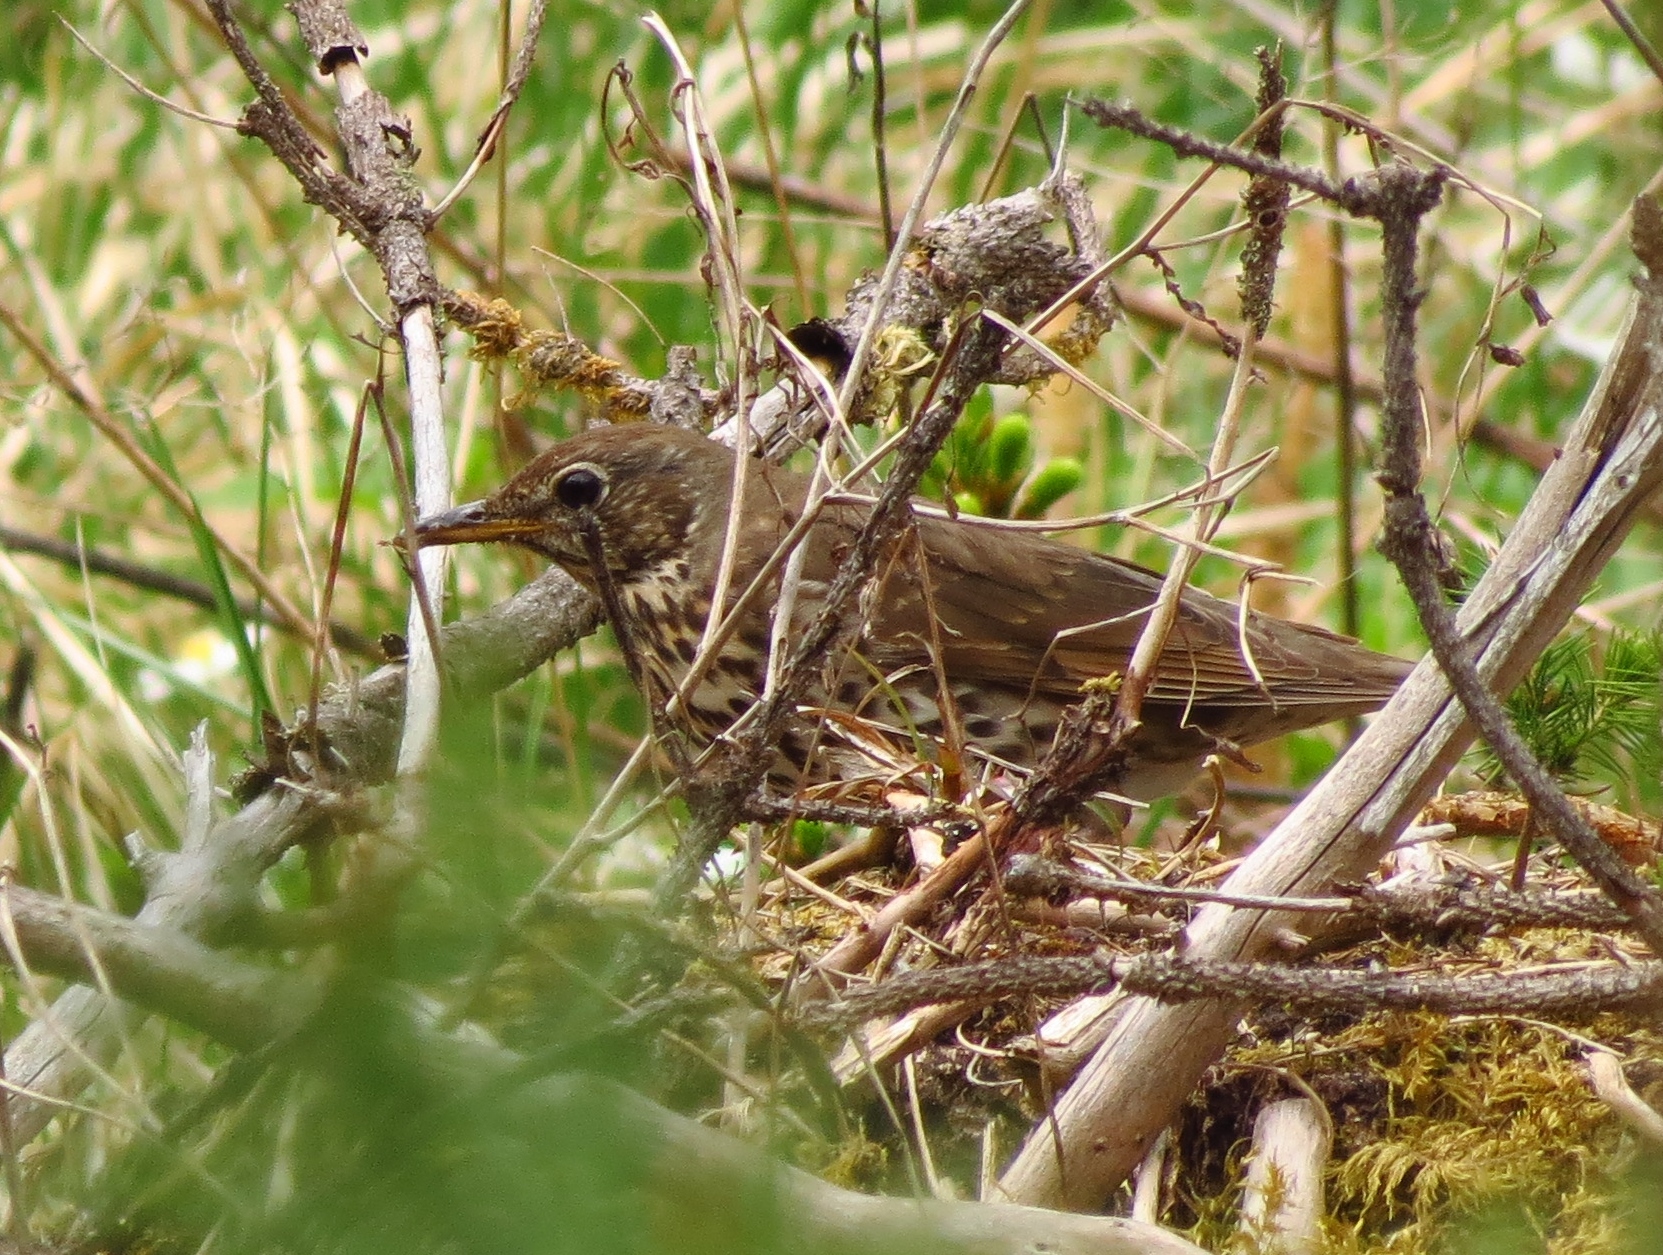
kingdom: Animalia
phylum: Chordata
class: Aves
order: Passeriformes
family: Turdidae
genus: Turdus
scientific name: Turdus philomelos
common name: Song thrush
